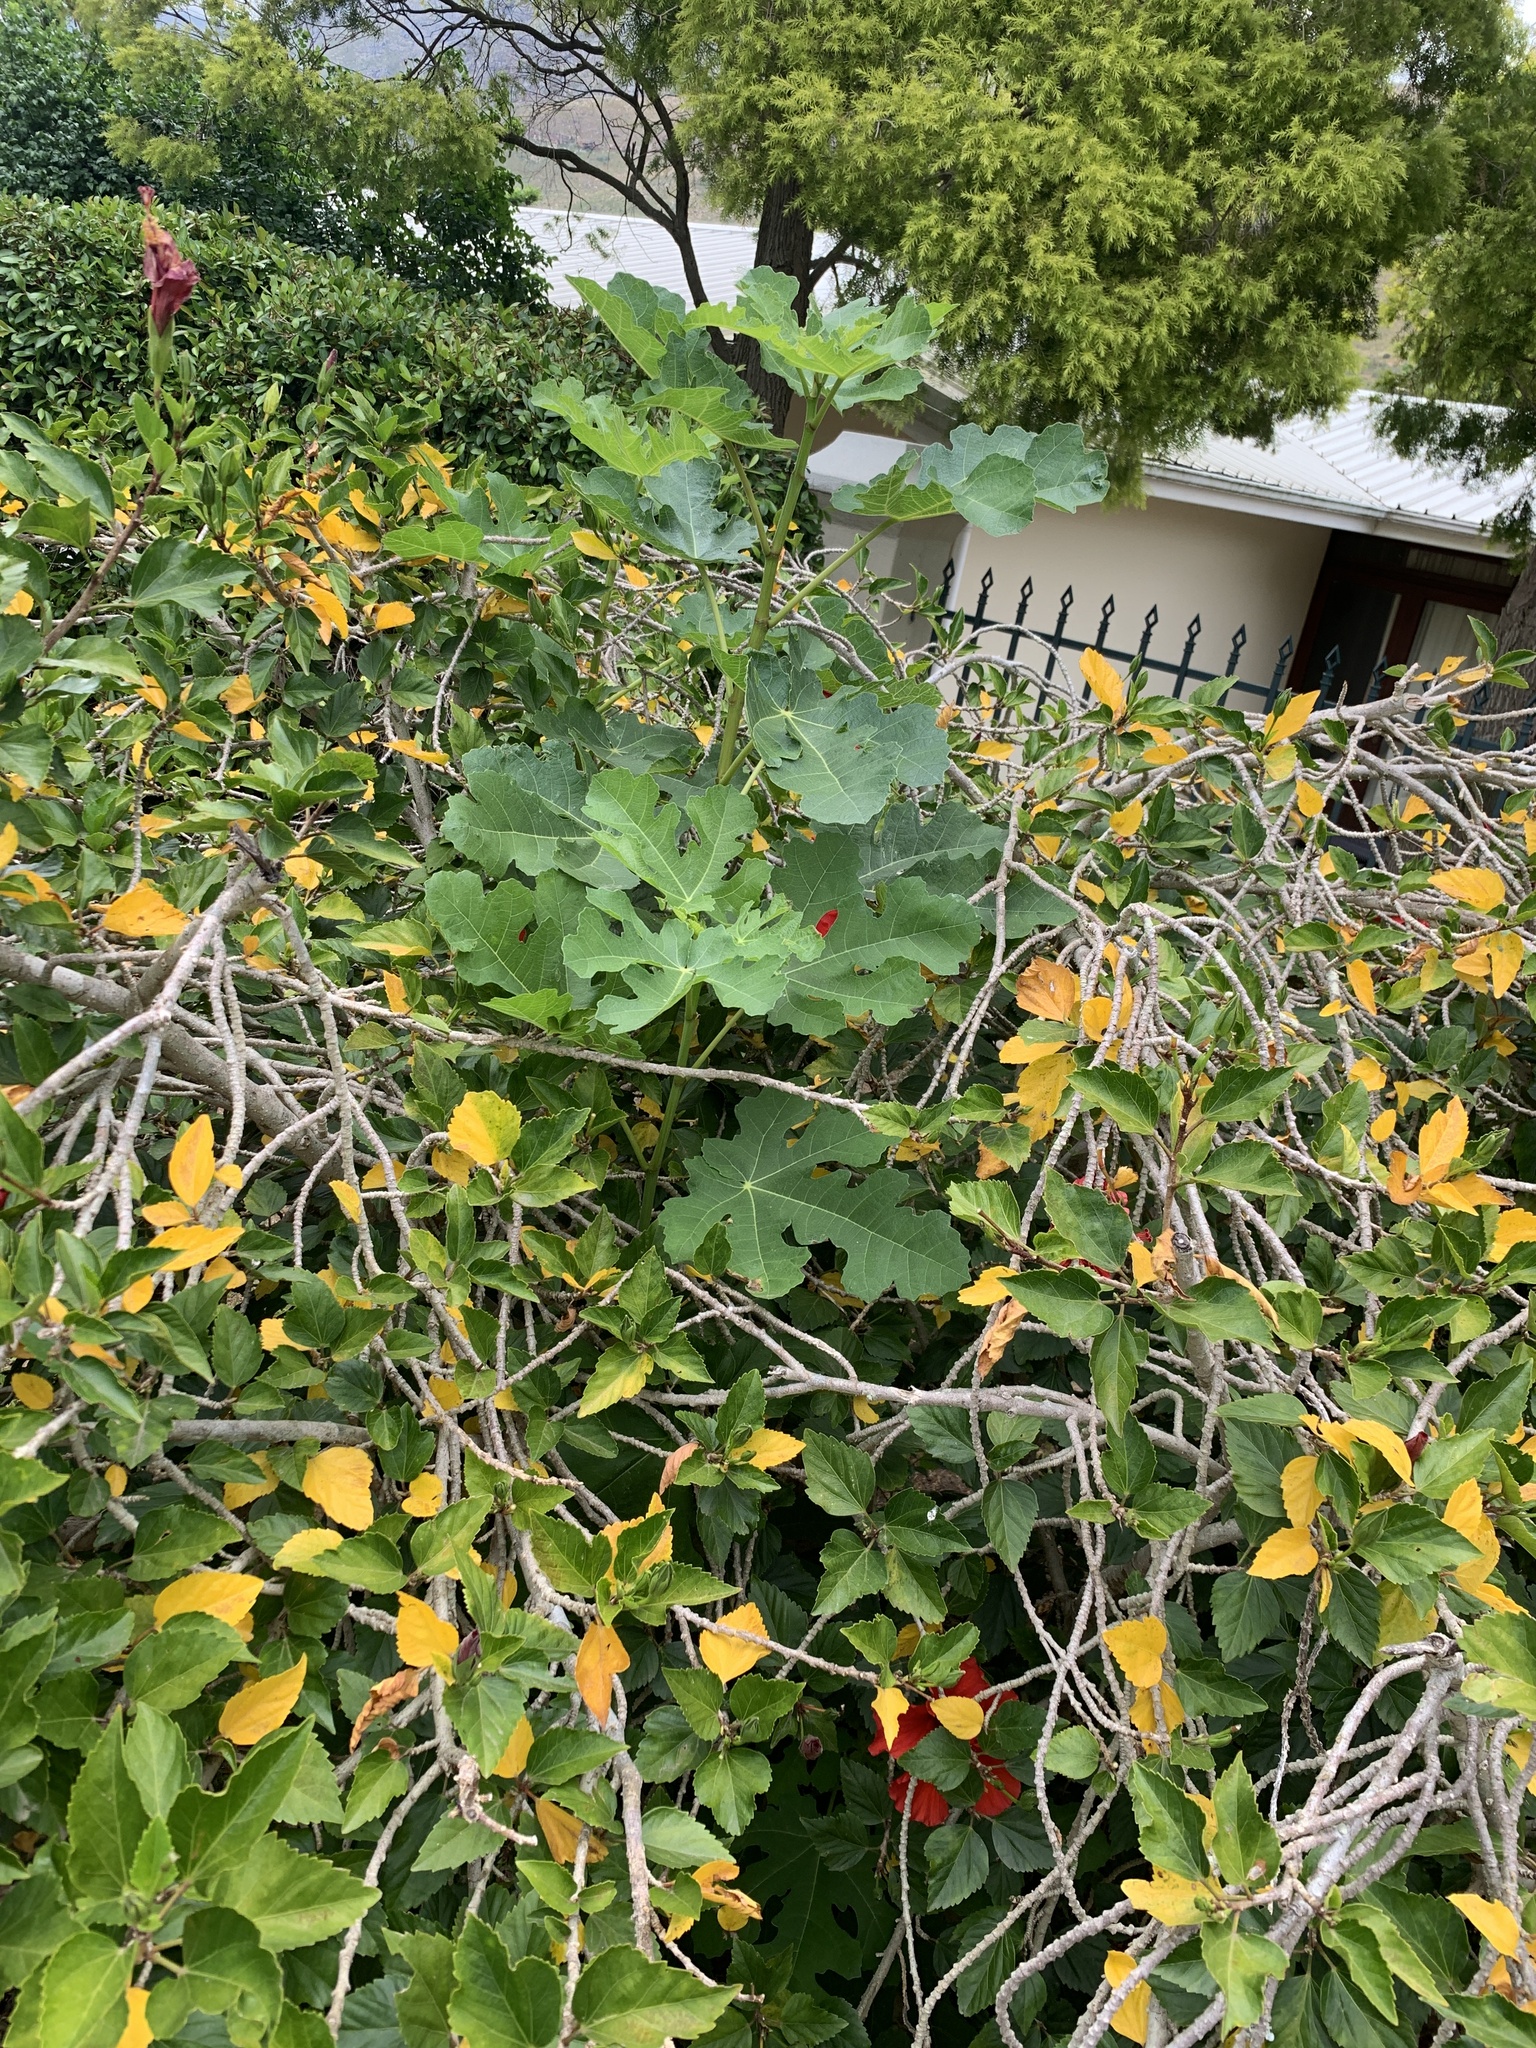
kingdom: Plantae
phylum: Tracheophyta
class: Magnoliopsida
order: Rosales
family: Moraceae
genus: Ficus
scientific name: Ficus carica
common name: Fig
